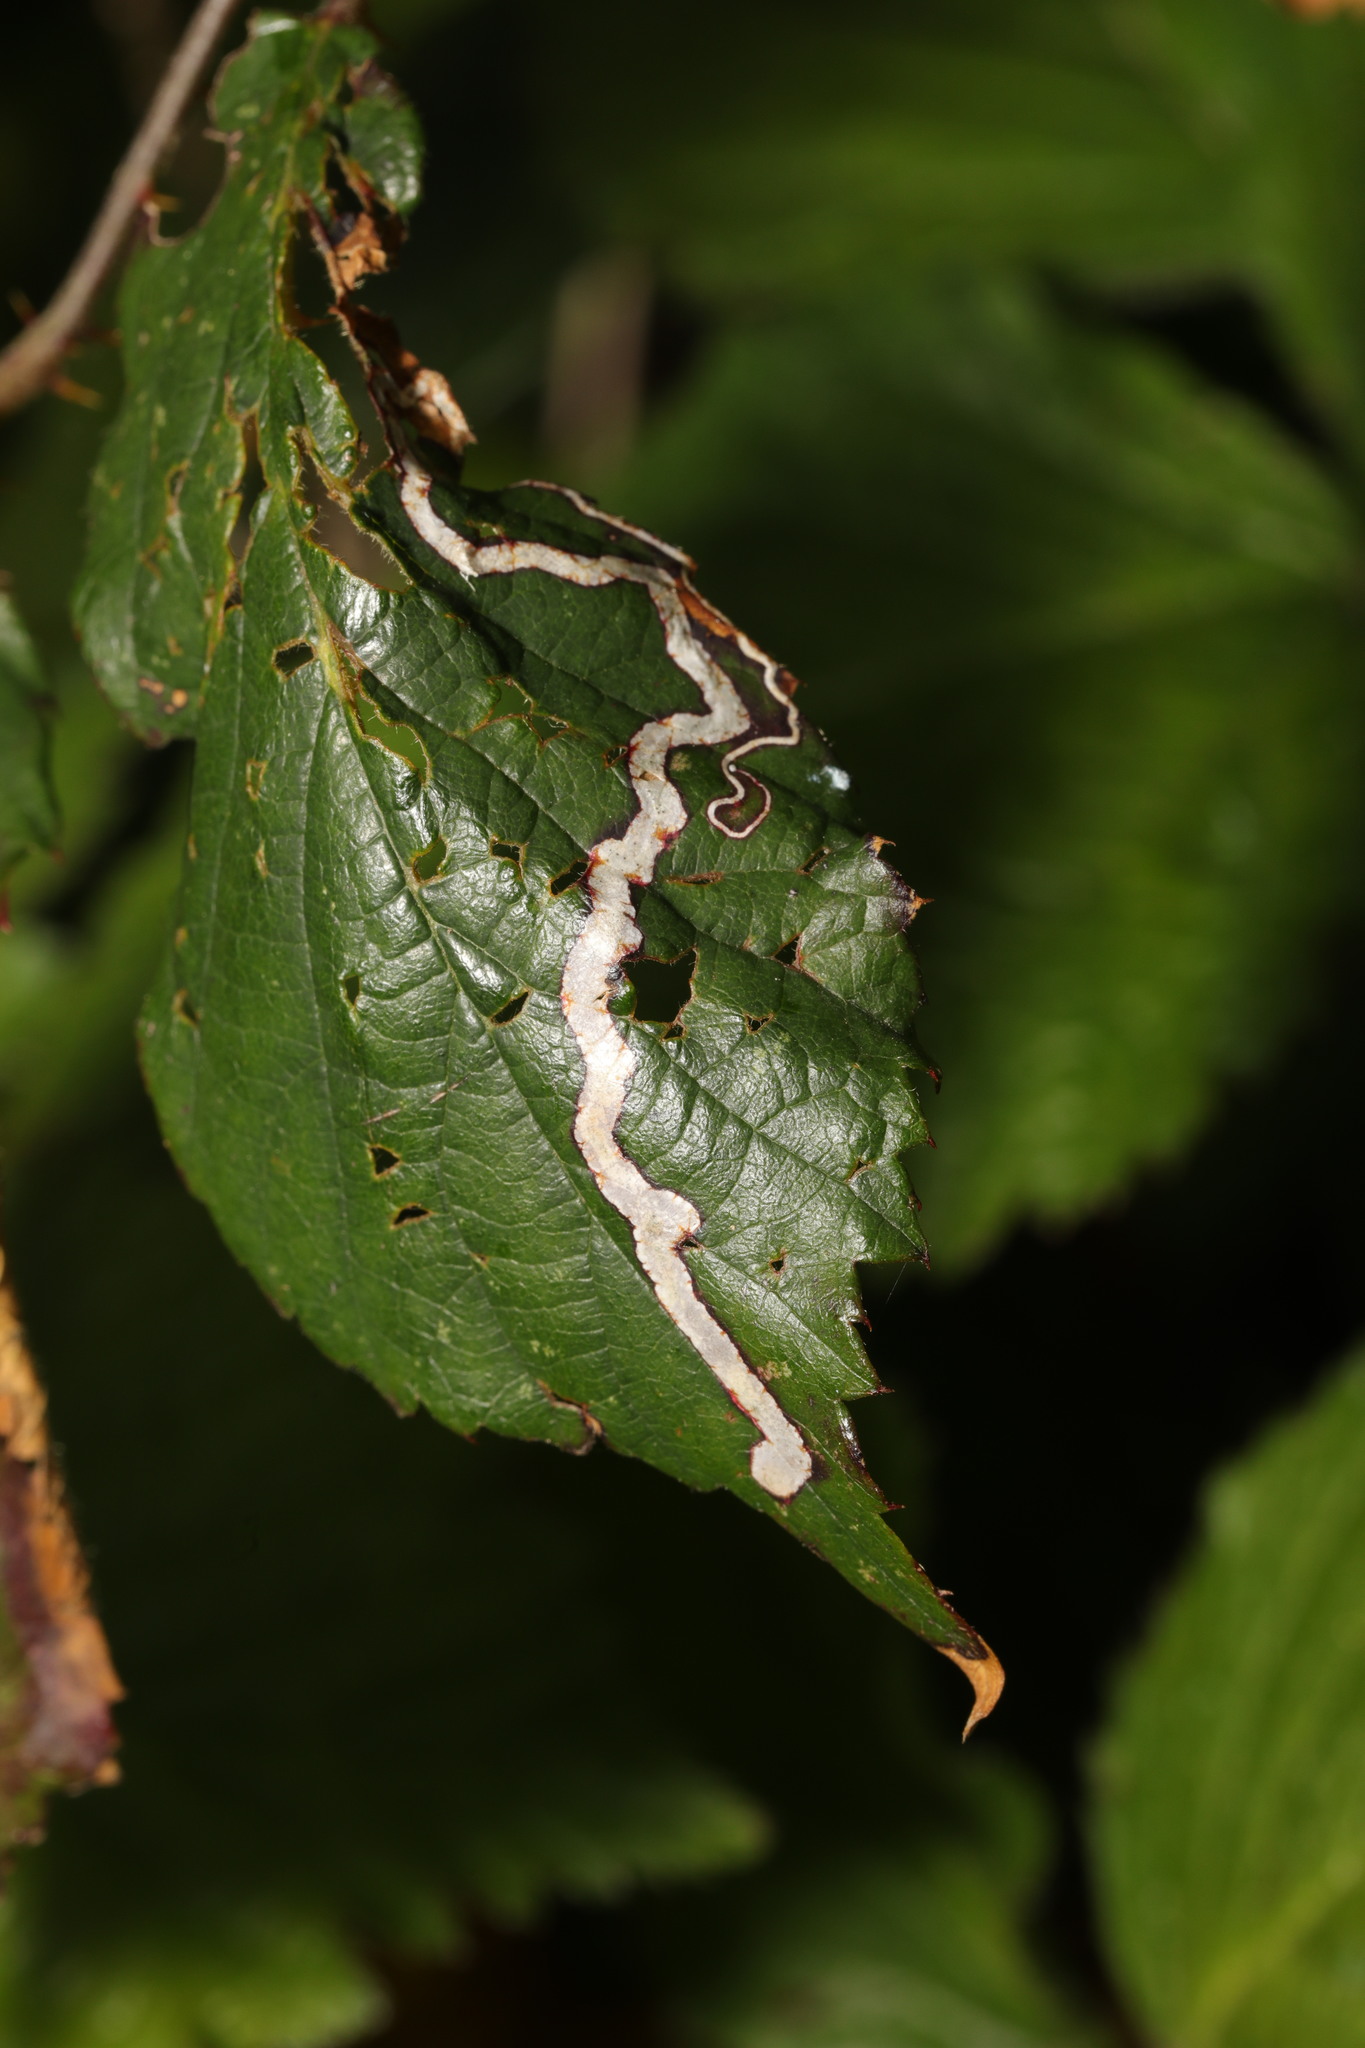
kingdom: Animalia
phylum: Arthropoda
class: Insecta
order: Lepidoptera
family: Nepticulidae
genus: Stigmella
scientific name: Stigmella aurella
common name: Golden pigmy
